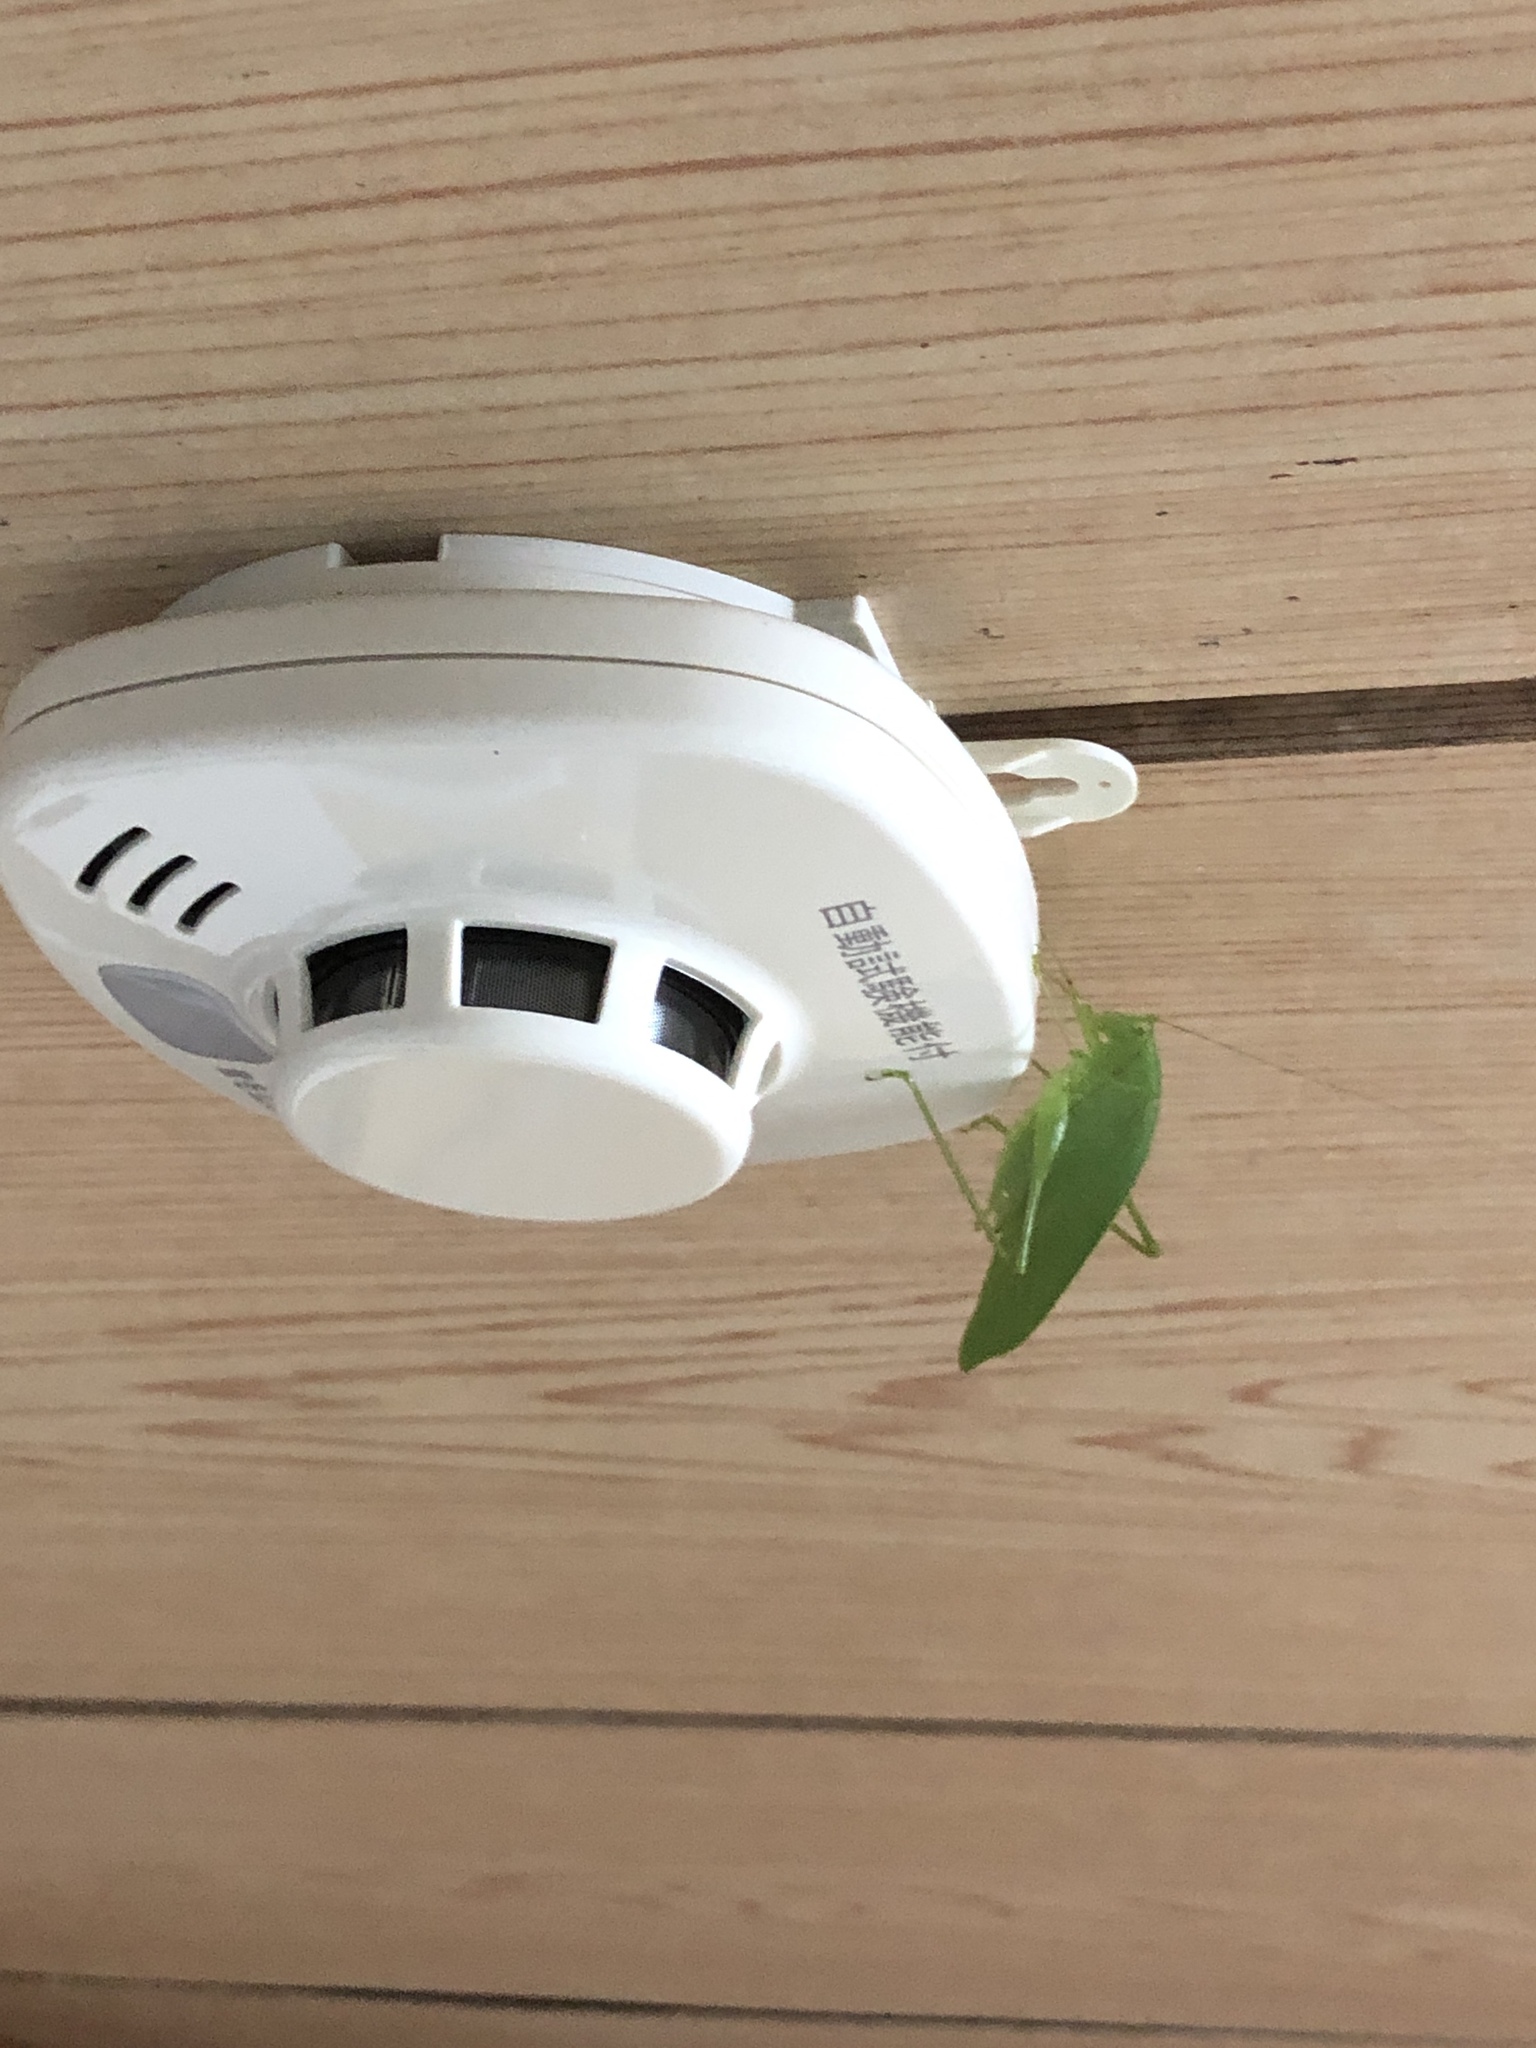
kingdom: Animalia
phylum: Arthropoda
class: Insecta
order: Orthoptera
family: Tettigoniidae
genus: Phaulula
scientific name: Phaulula daitoensis
